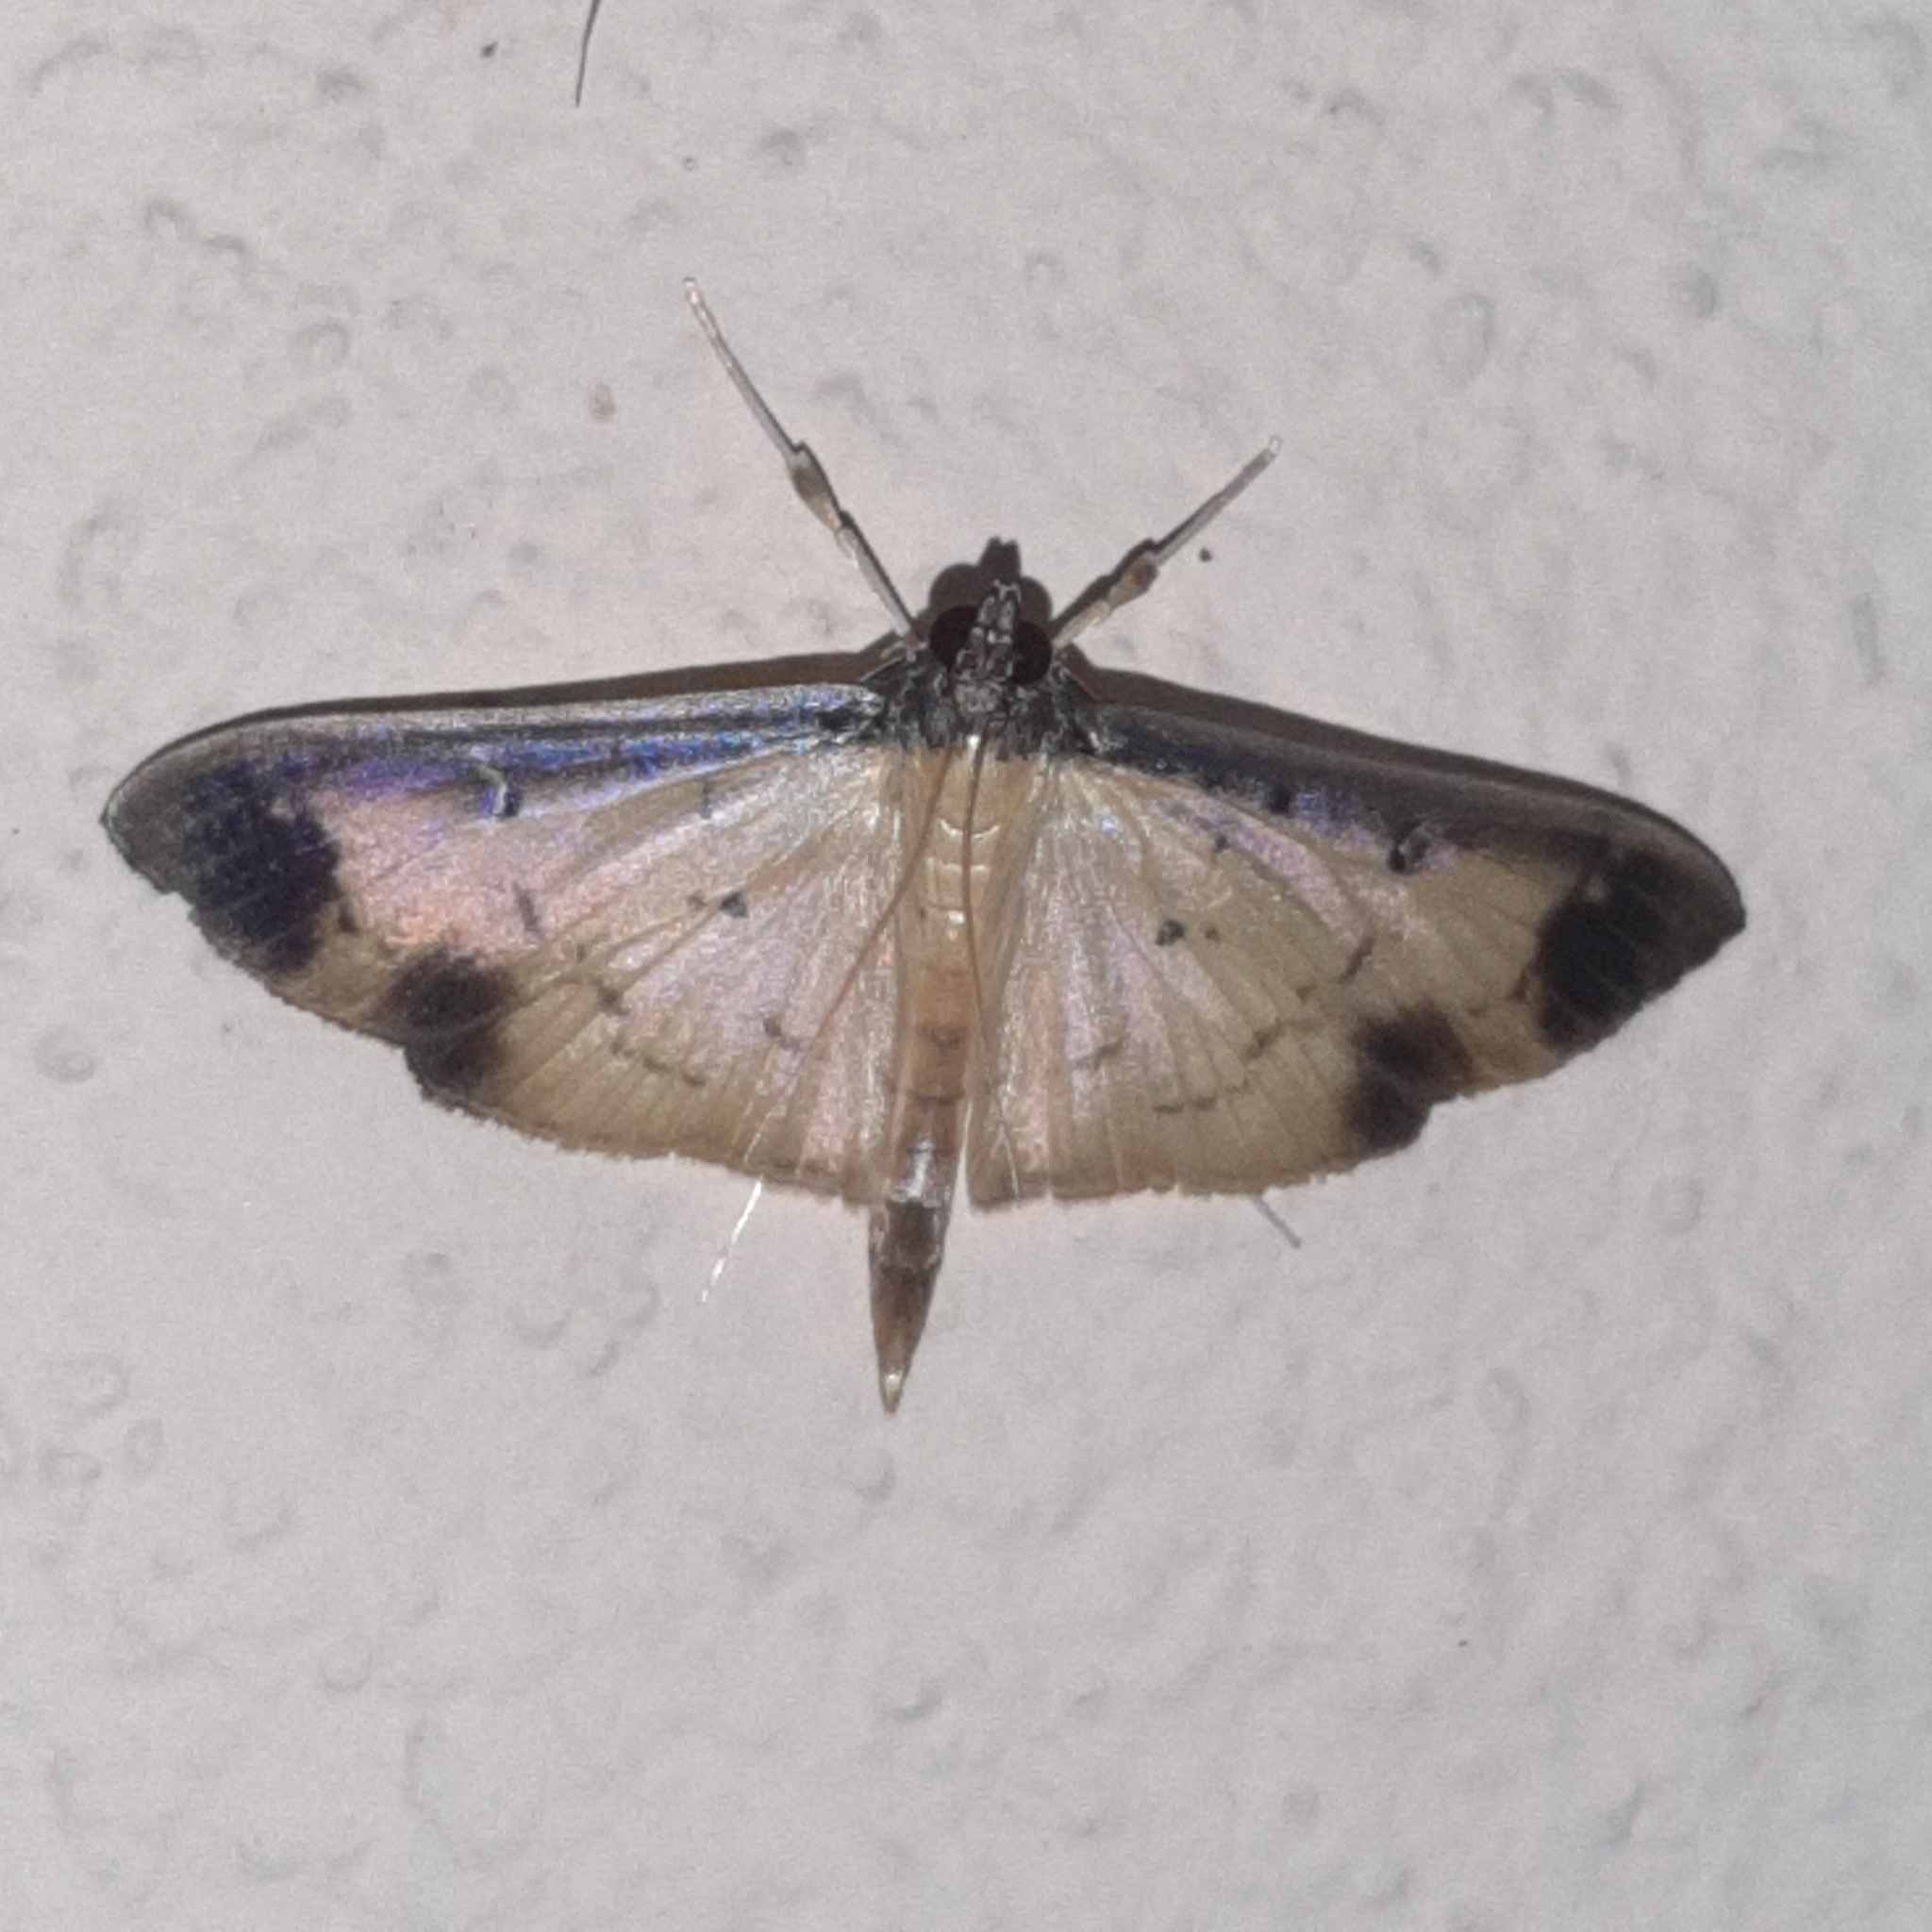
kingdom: Animalia
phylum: Arthropoda
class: Insecta
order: Lepidoptera
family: Crambidae
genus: Eulepte
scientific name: Eulepte concordalis
